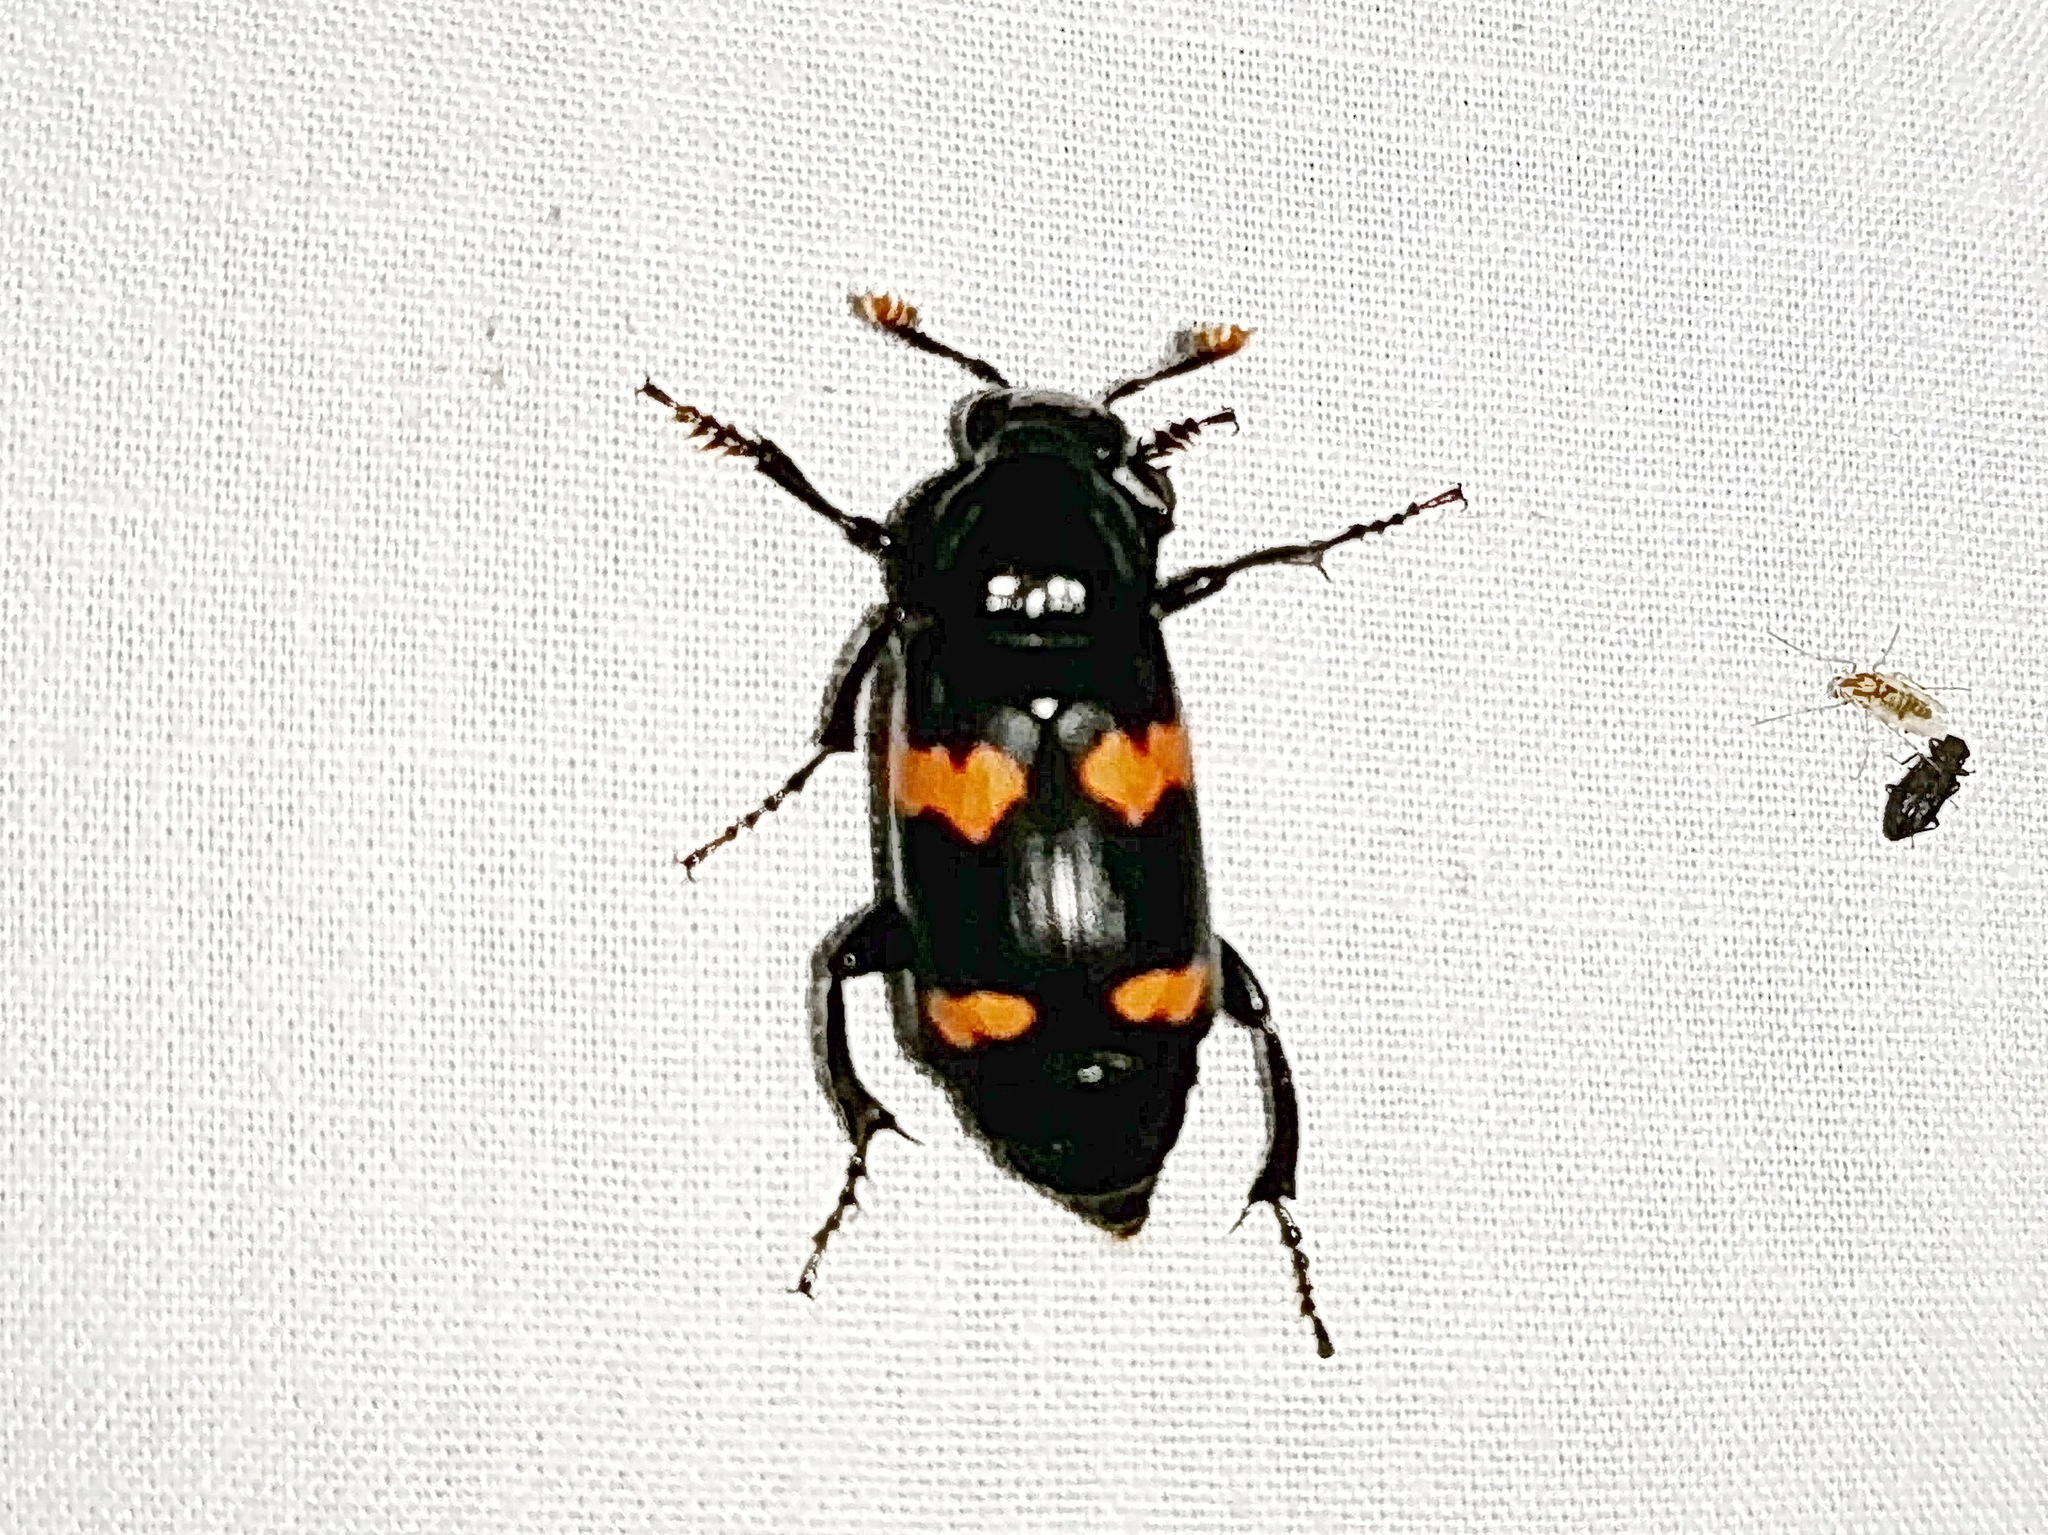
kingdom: Animalia
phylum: Arthropoda
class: Insecta
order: Coleoptera
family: Staphylinidae
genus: Nicrophorus
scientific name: Nicrophorus sayi
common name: Say's burying beetle
